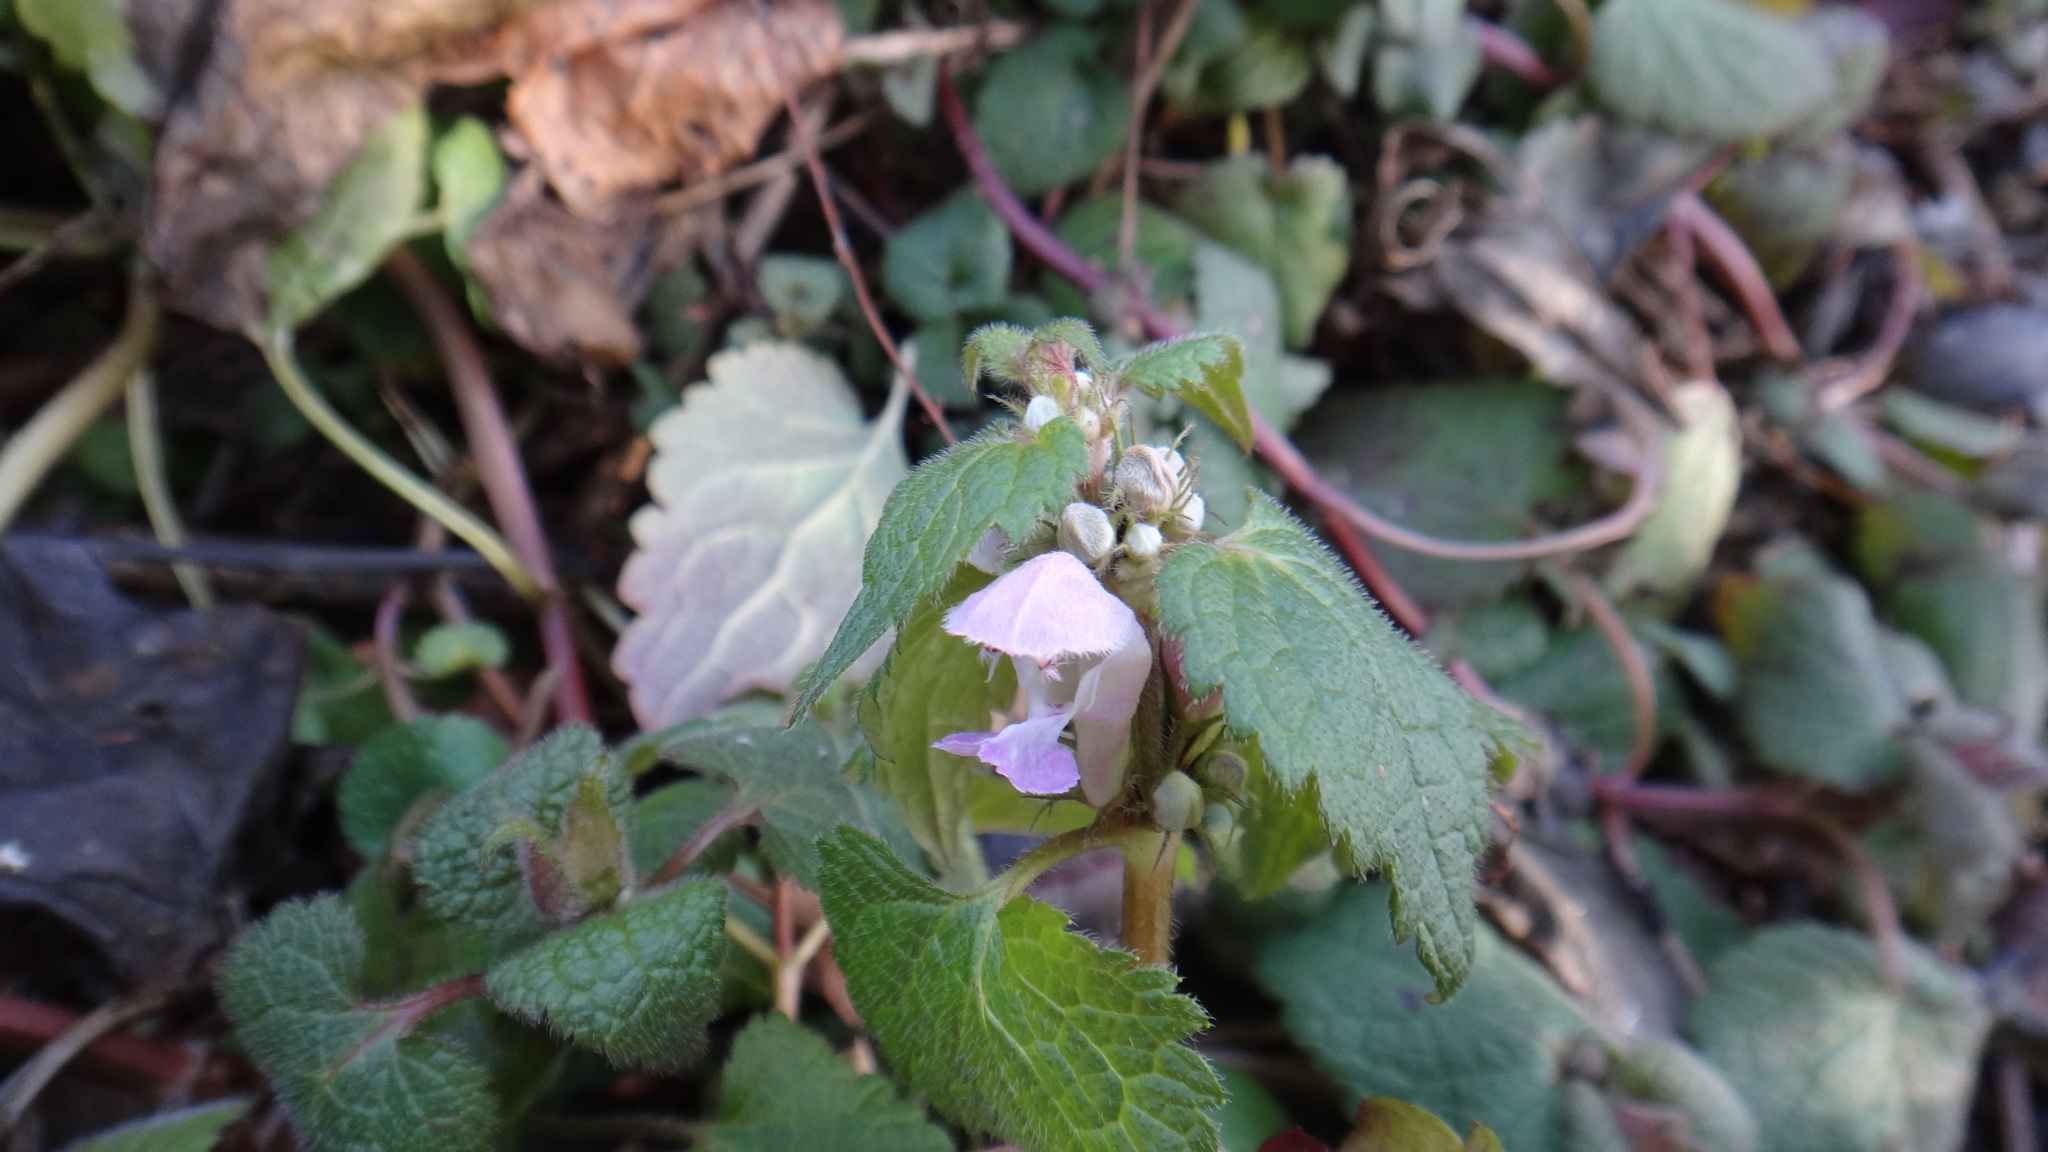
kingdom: Plantae
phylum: Tracheophyta
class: Magnoliopsida
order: Lamiales
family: Lamiaceae
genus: Lamium
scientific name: Lamium maculatum
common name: Spotted dead-nettle
